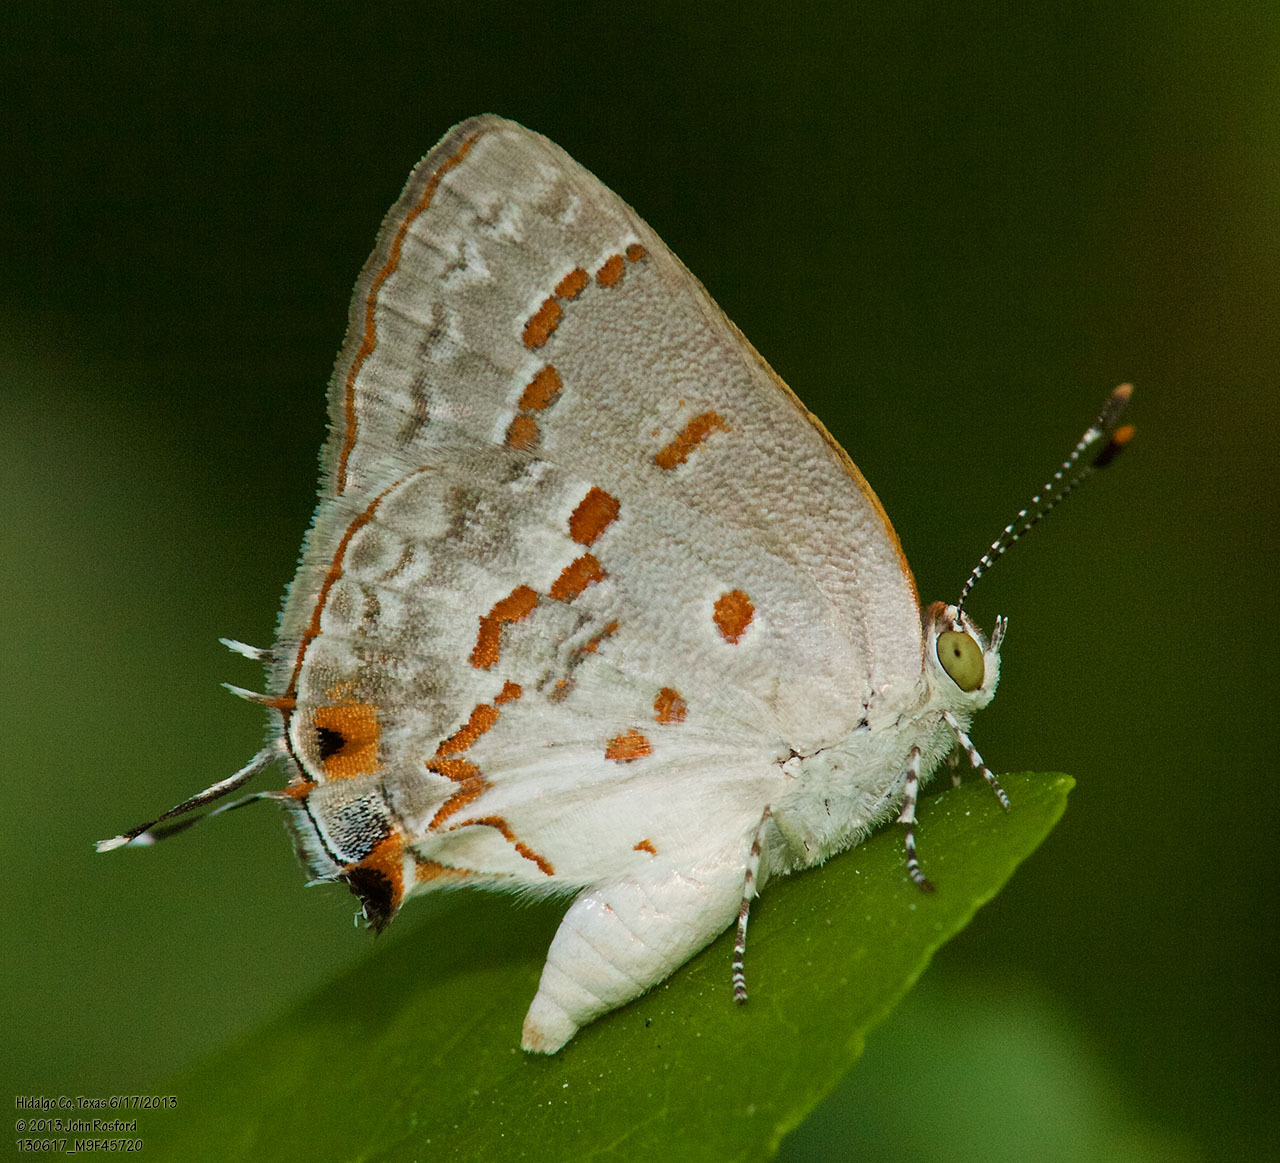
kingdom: Animalia
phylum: Arthropoda
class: Insecta
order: Lepidoptera
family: Lycaenidae
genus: Ministrymon
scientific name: Ministrymon clytie
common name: Clytie ministreak
